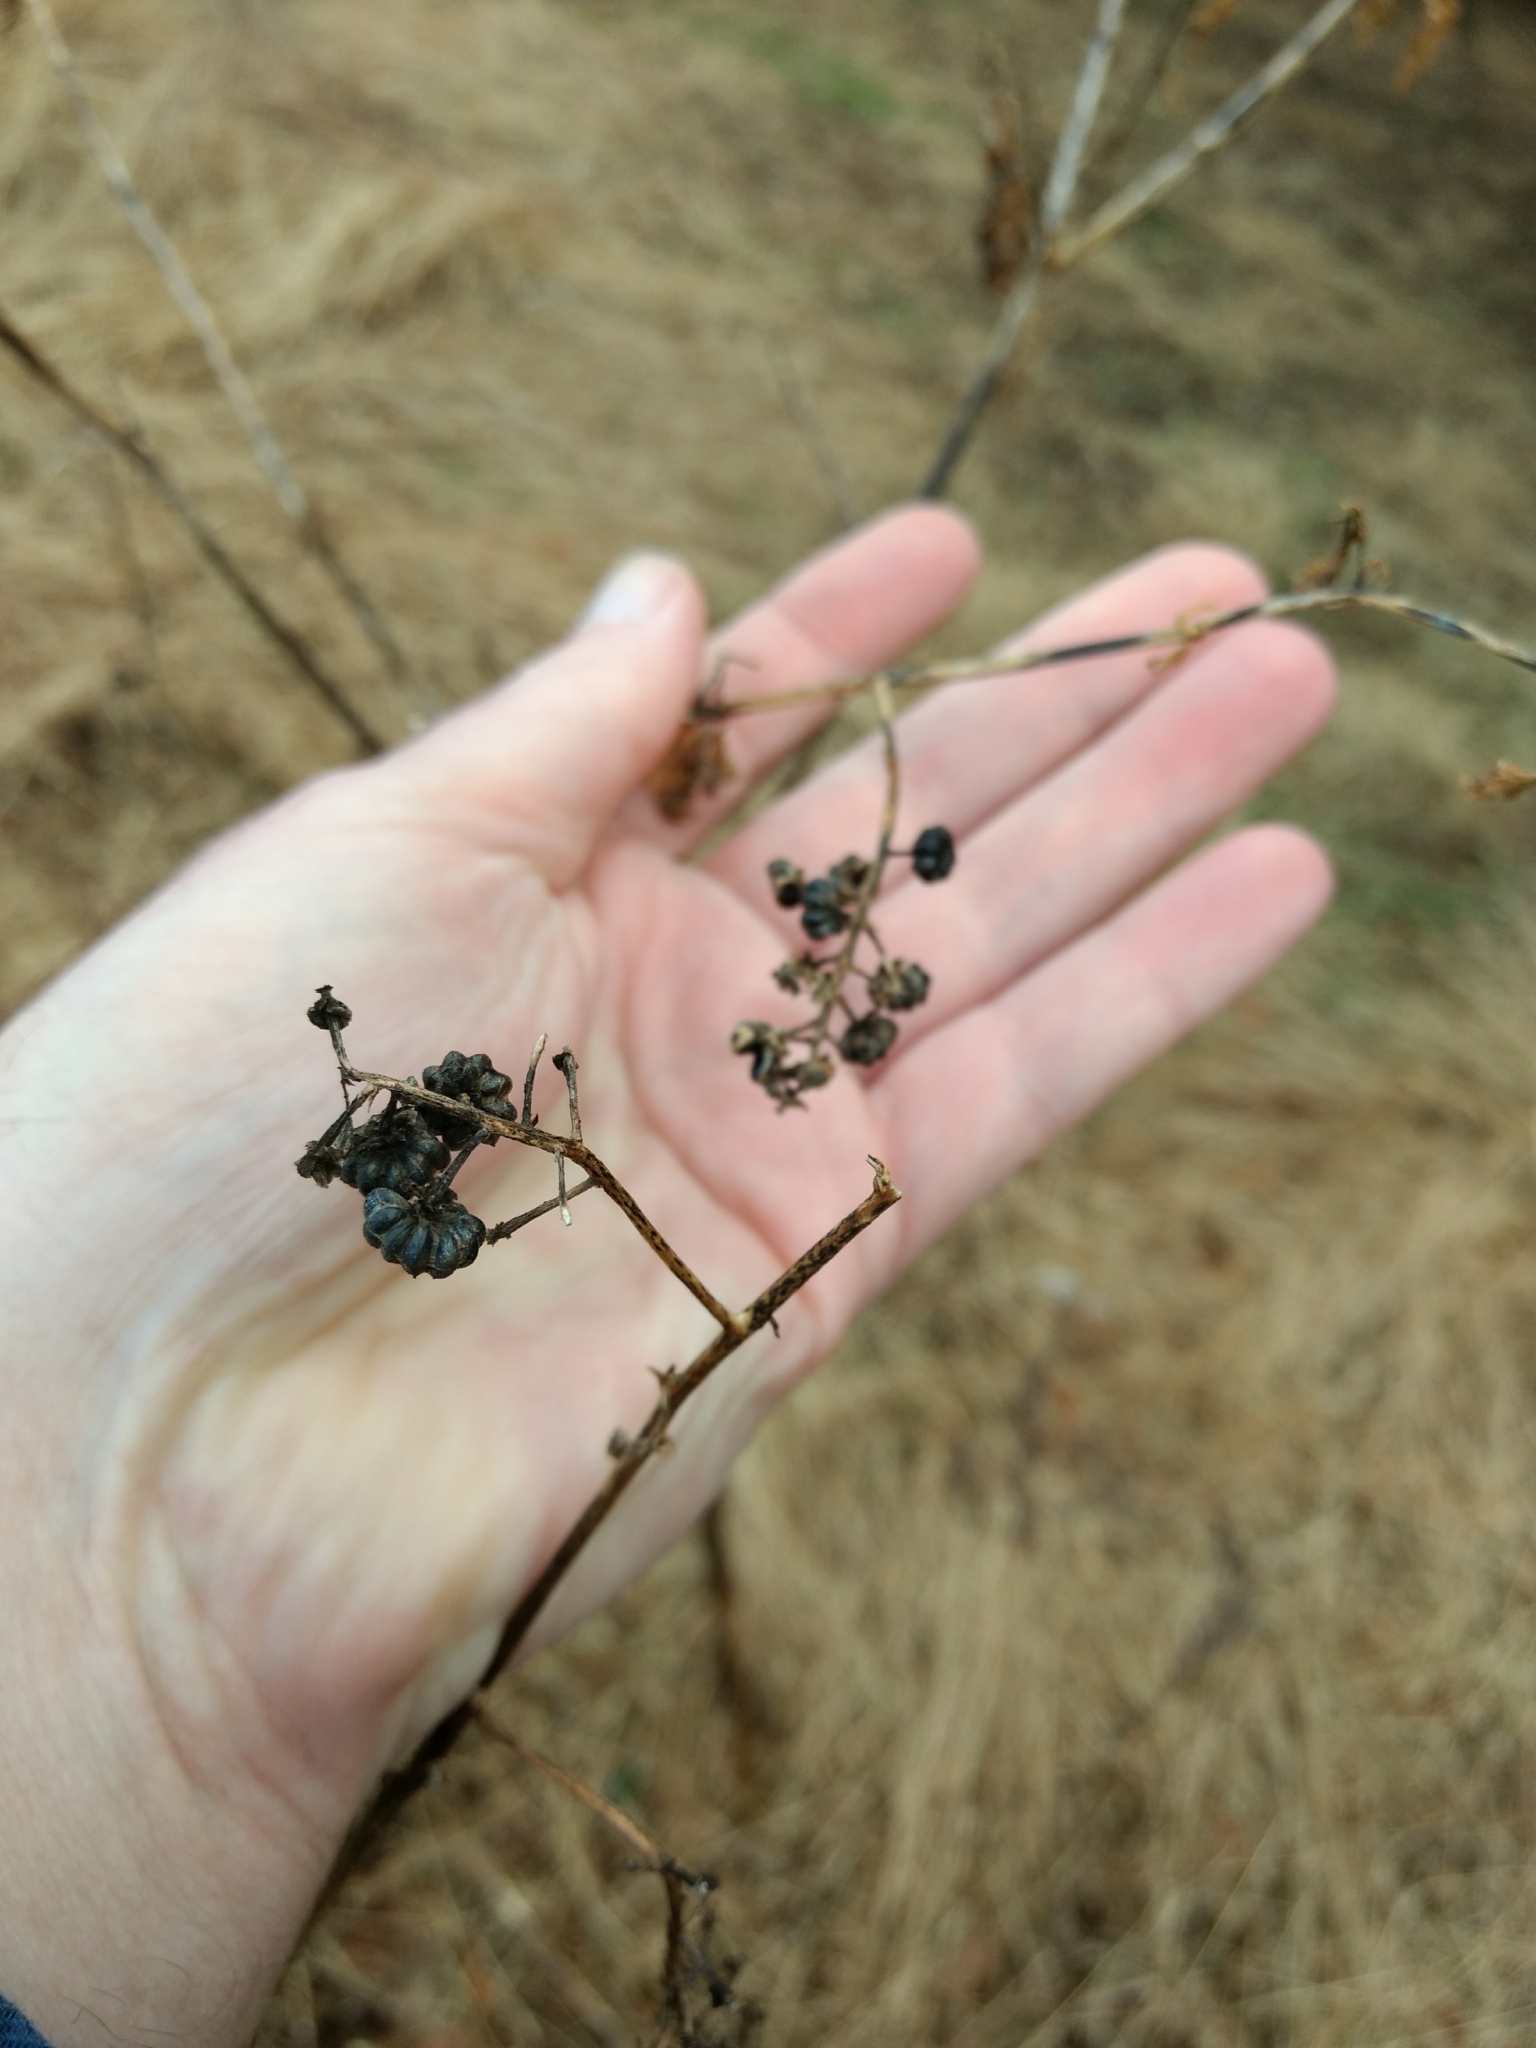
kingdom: Plantae
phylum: Tracheophyta
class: Magnoliopsida
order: Caryophyllales
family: Phytolaccaceae
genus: Phytolacca
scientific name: Phytolacca americana
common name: American pokeweed
